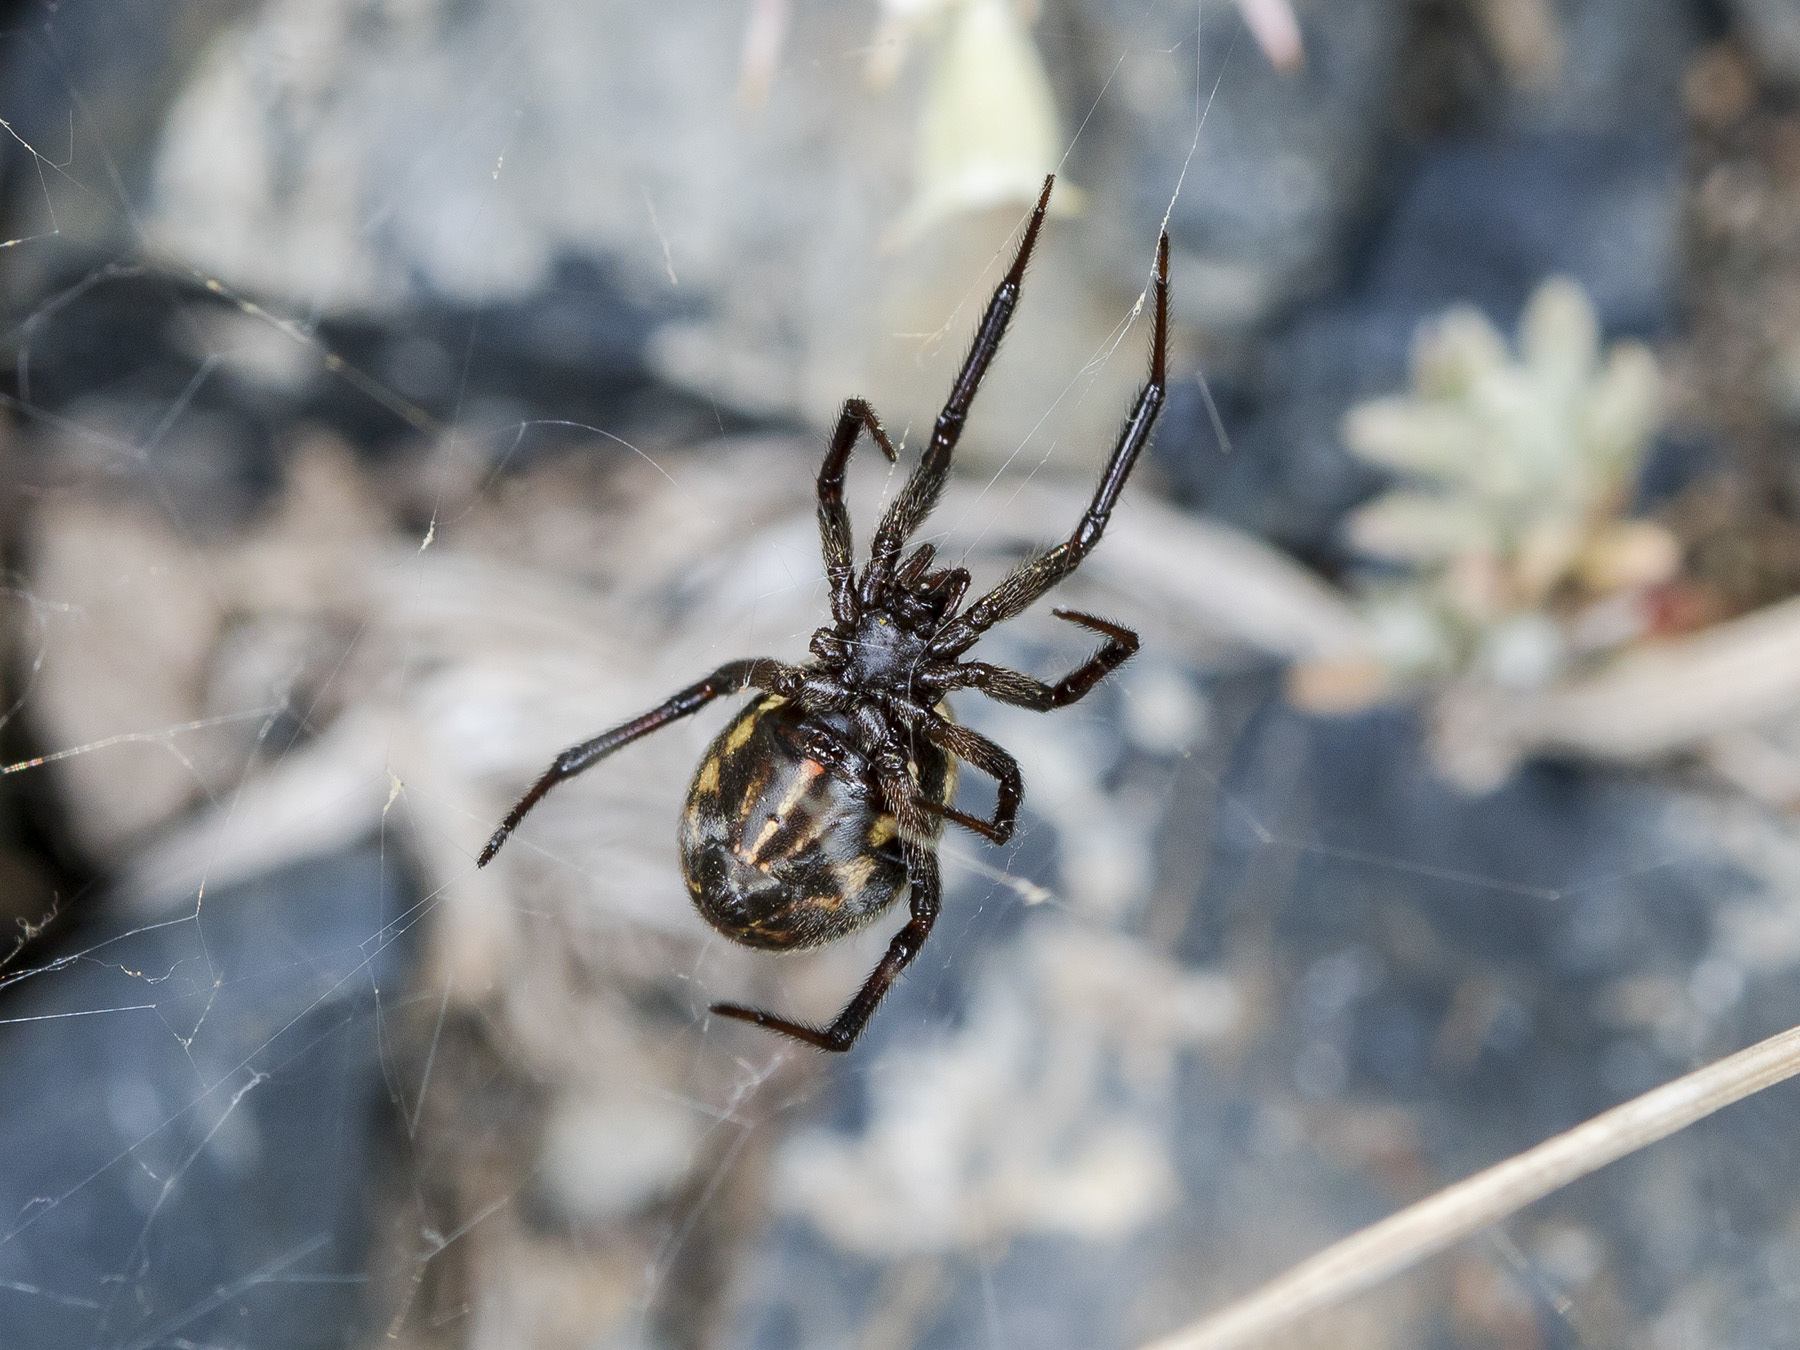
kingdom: Animalia
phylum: Arthropoda
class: Arachnida
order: Araneae
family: Theridiidae
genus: Steatoda
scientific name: Steatoda albomaculata
